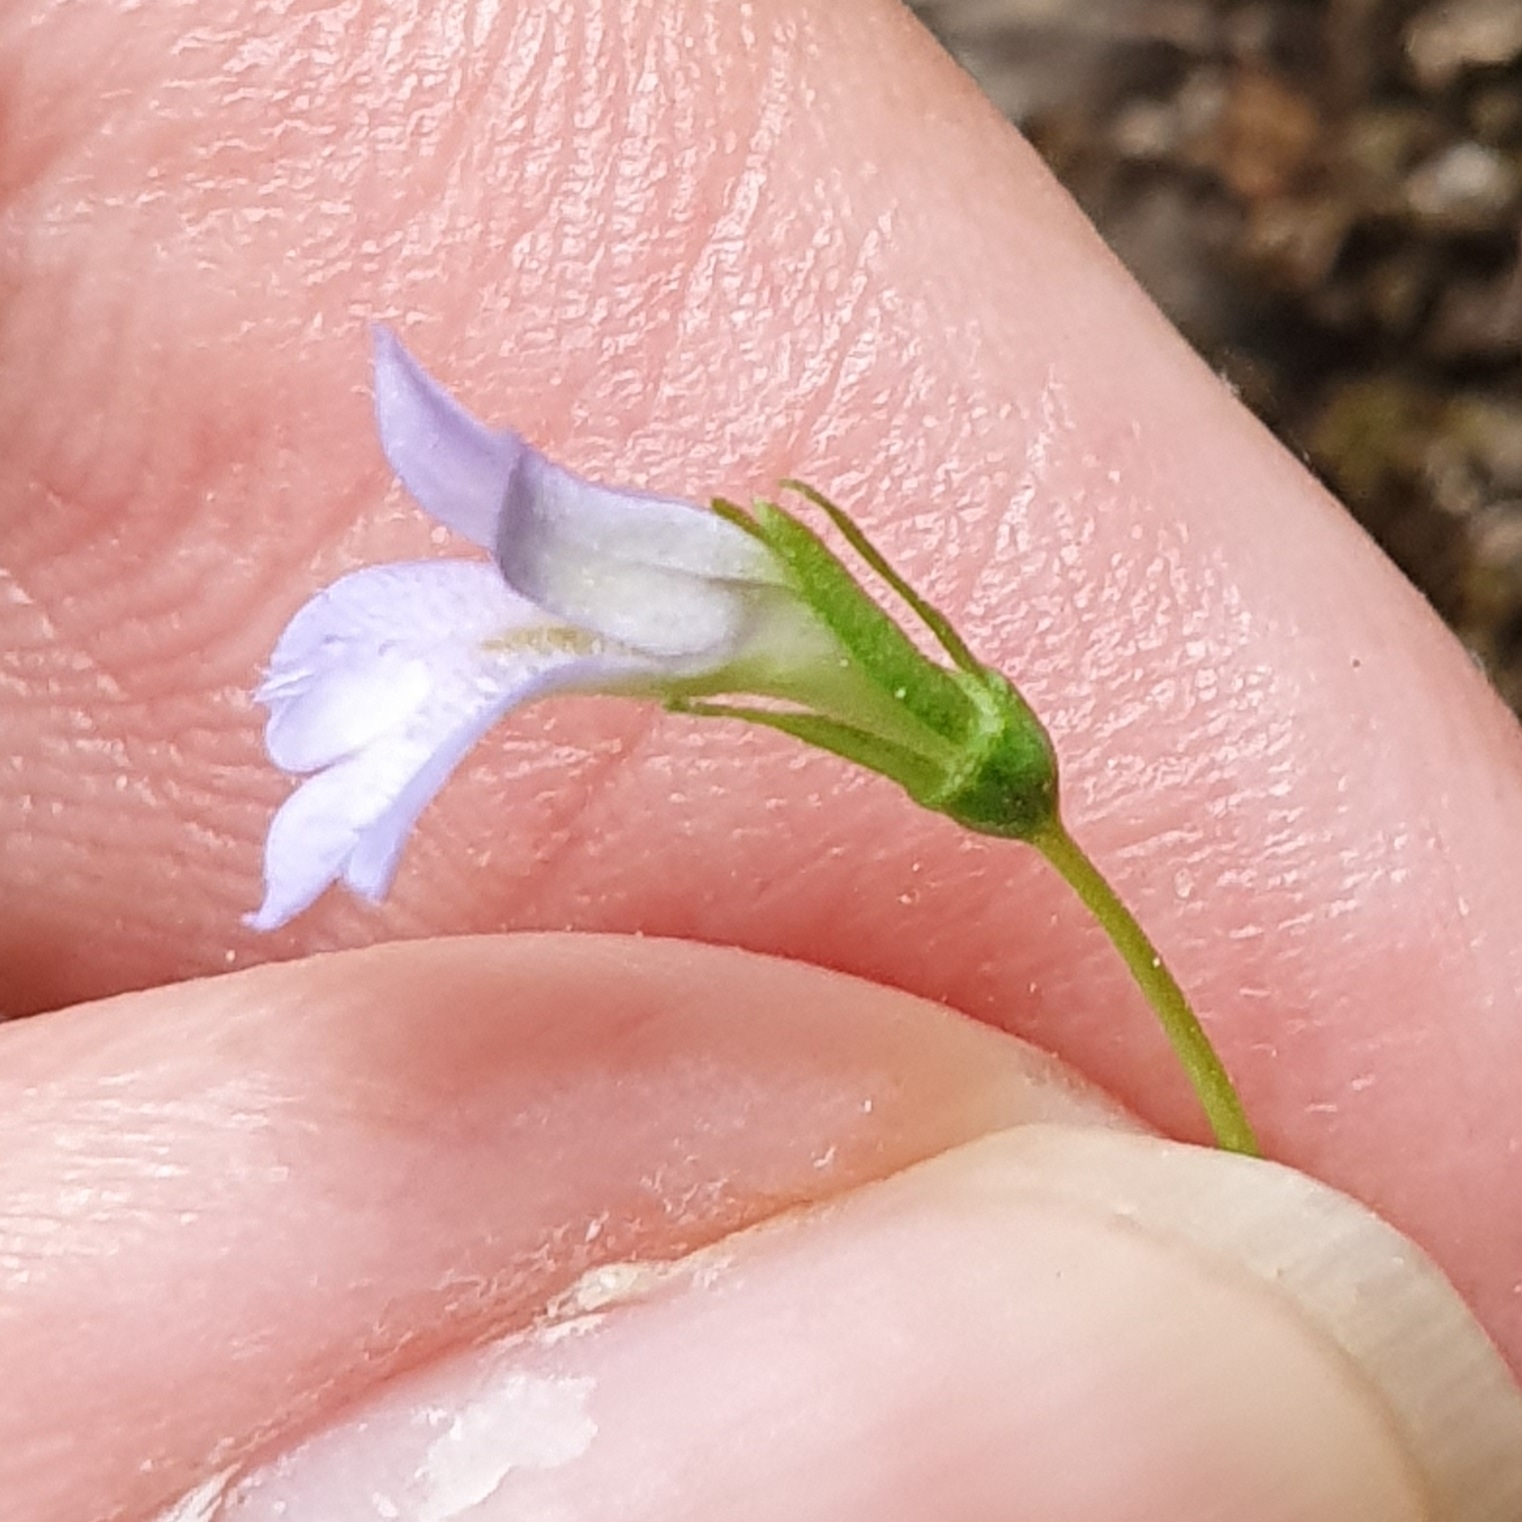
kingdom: Plantae
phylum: Tracheophyta
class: Magnoliopsida
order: Asterales
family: Campanulaceae
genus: Solenopsis
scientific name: Solenopsis laurentia
